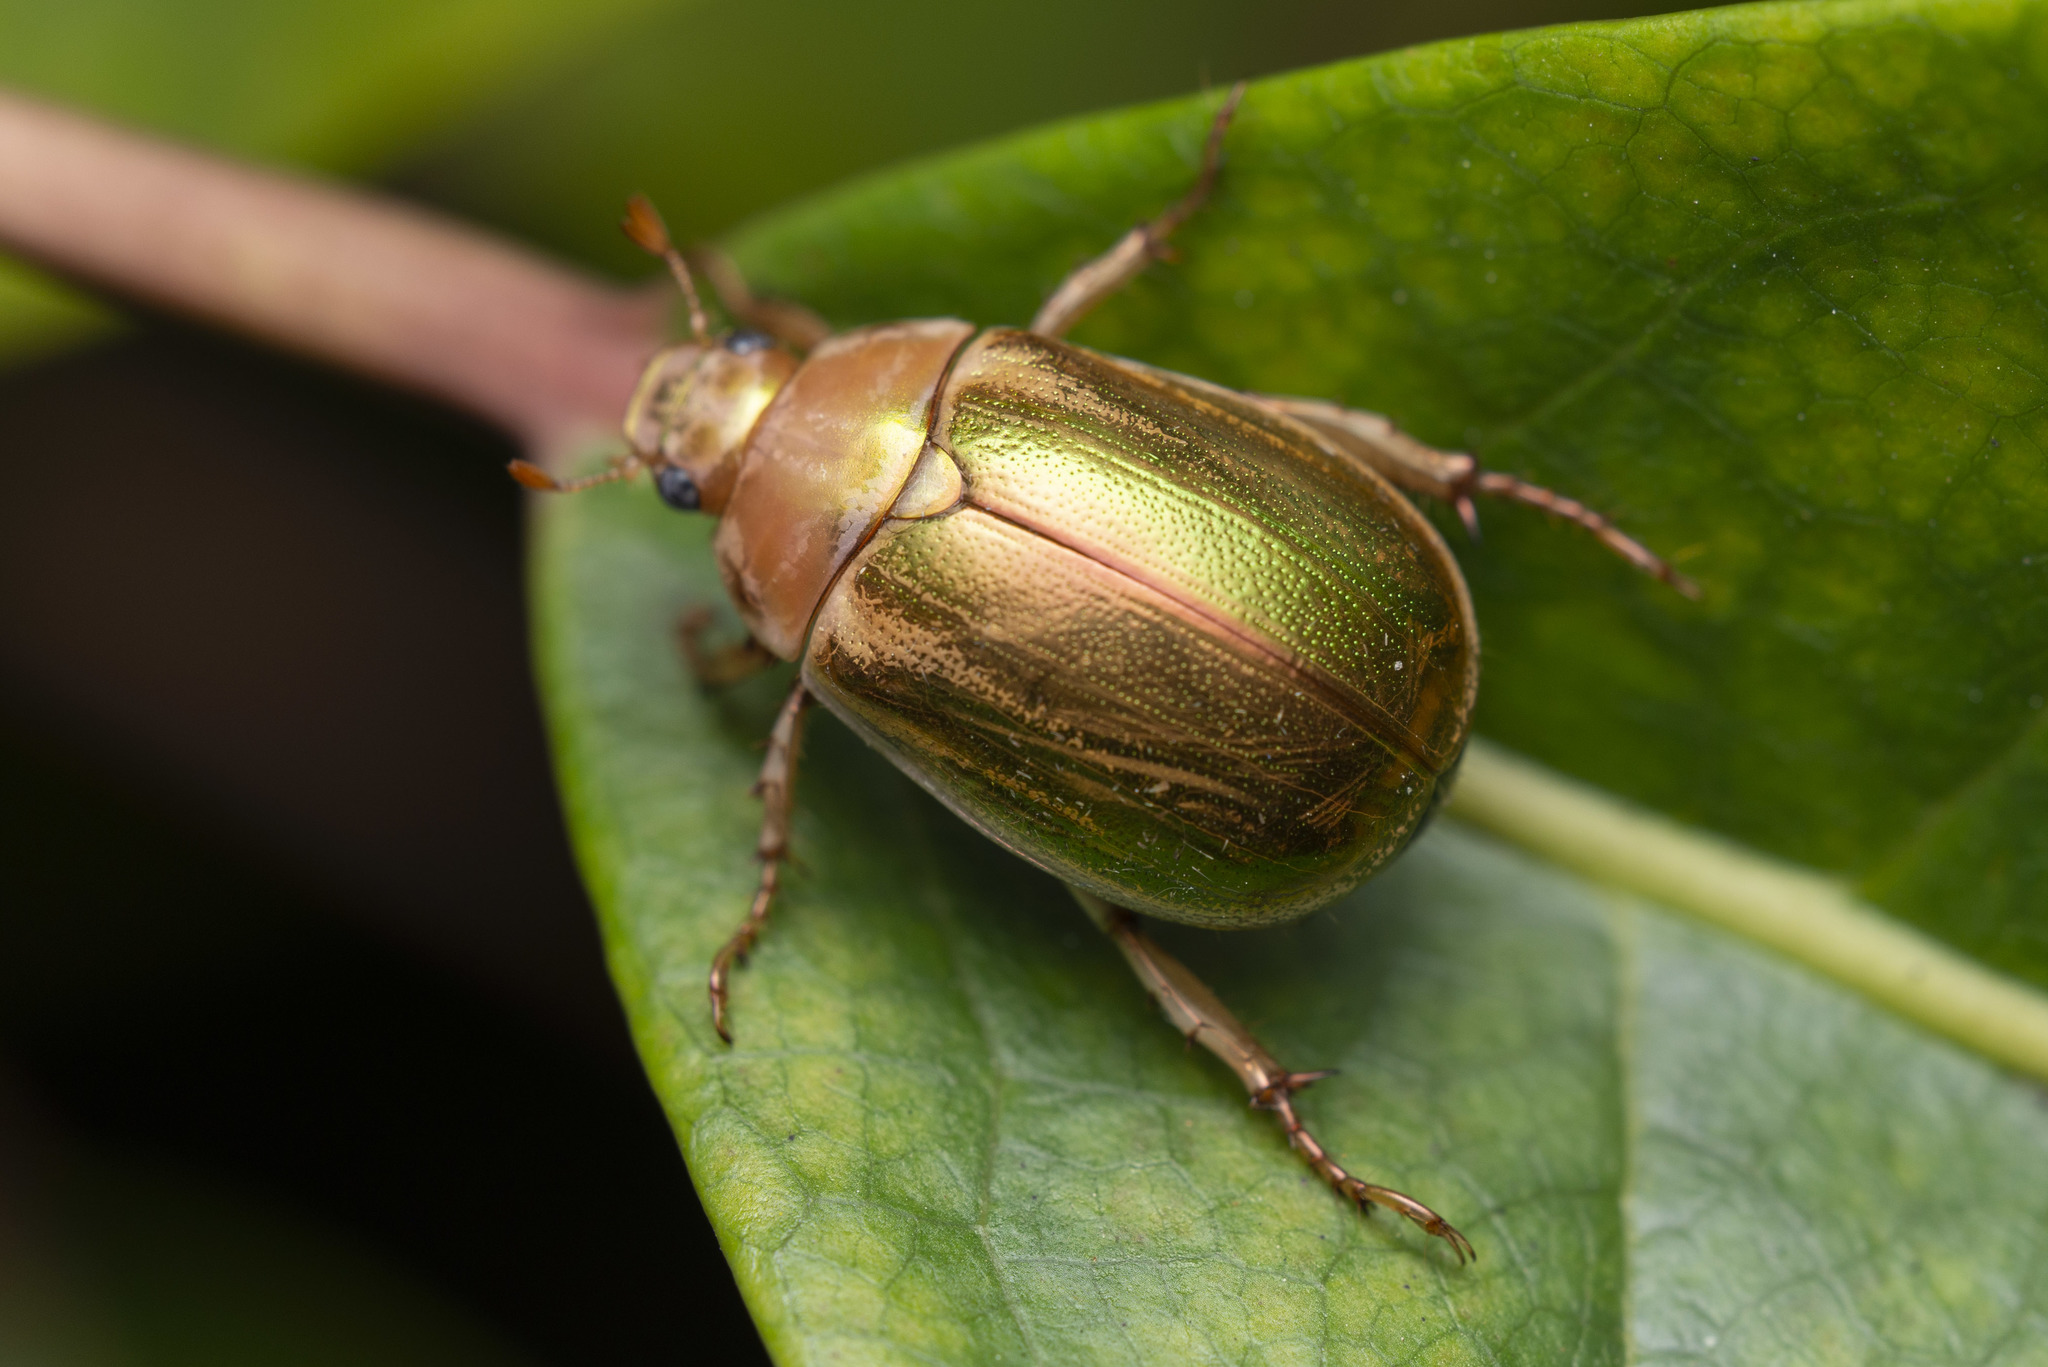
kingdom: Animalia
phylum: Arthropoda
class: Insecta
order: Coleoptera
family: Scarabaeidae
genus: Mimela
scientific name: Mimela specularis
